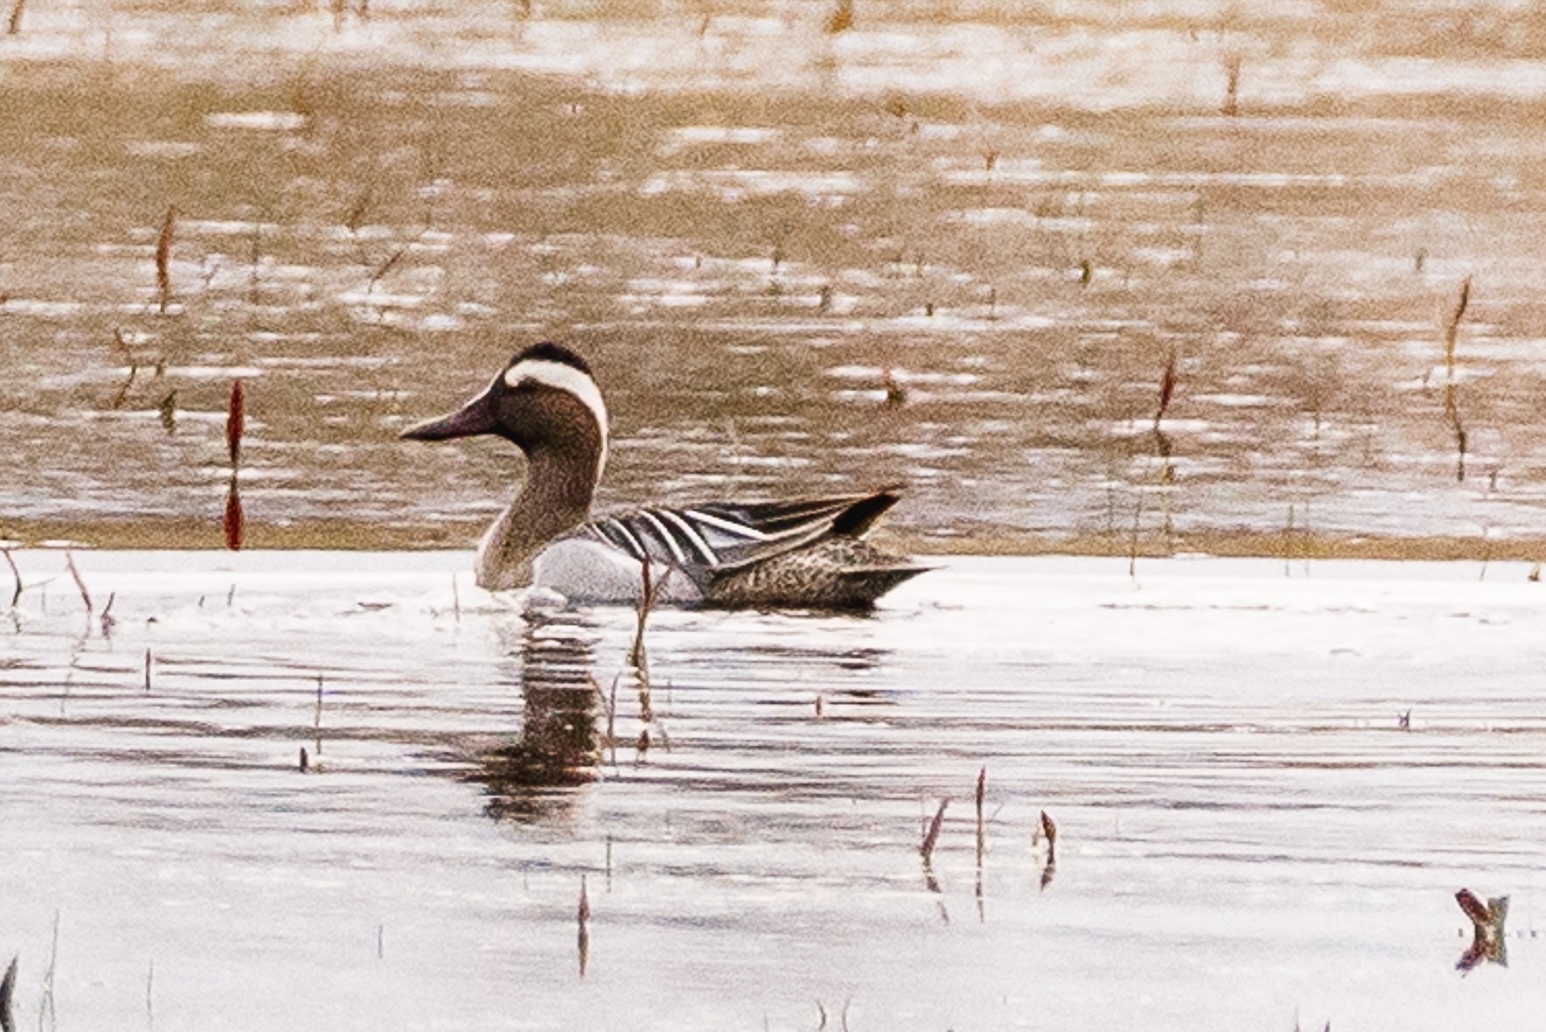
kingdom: Animalia
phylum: Chordata
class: Aves
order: Anseriformes
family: Anatidae
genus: Spatula
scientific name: Spatula querquedula
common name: Garganey
